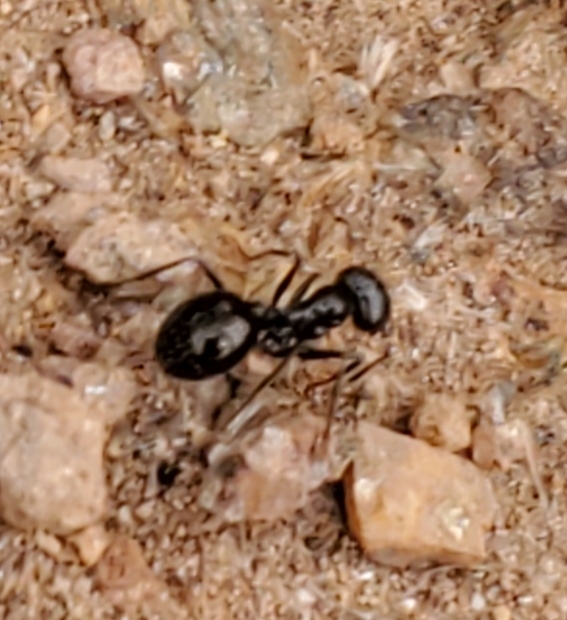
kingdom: Animalia
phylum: Arthropoda
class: Insecta
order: Hymenoptera
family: Formicidae
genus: Messor
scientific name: Messor pergandei
